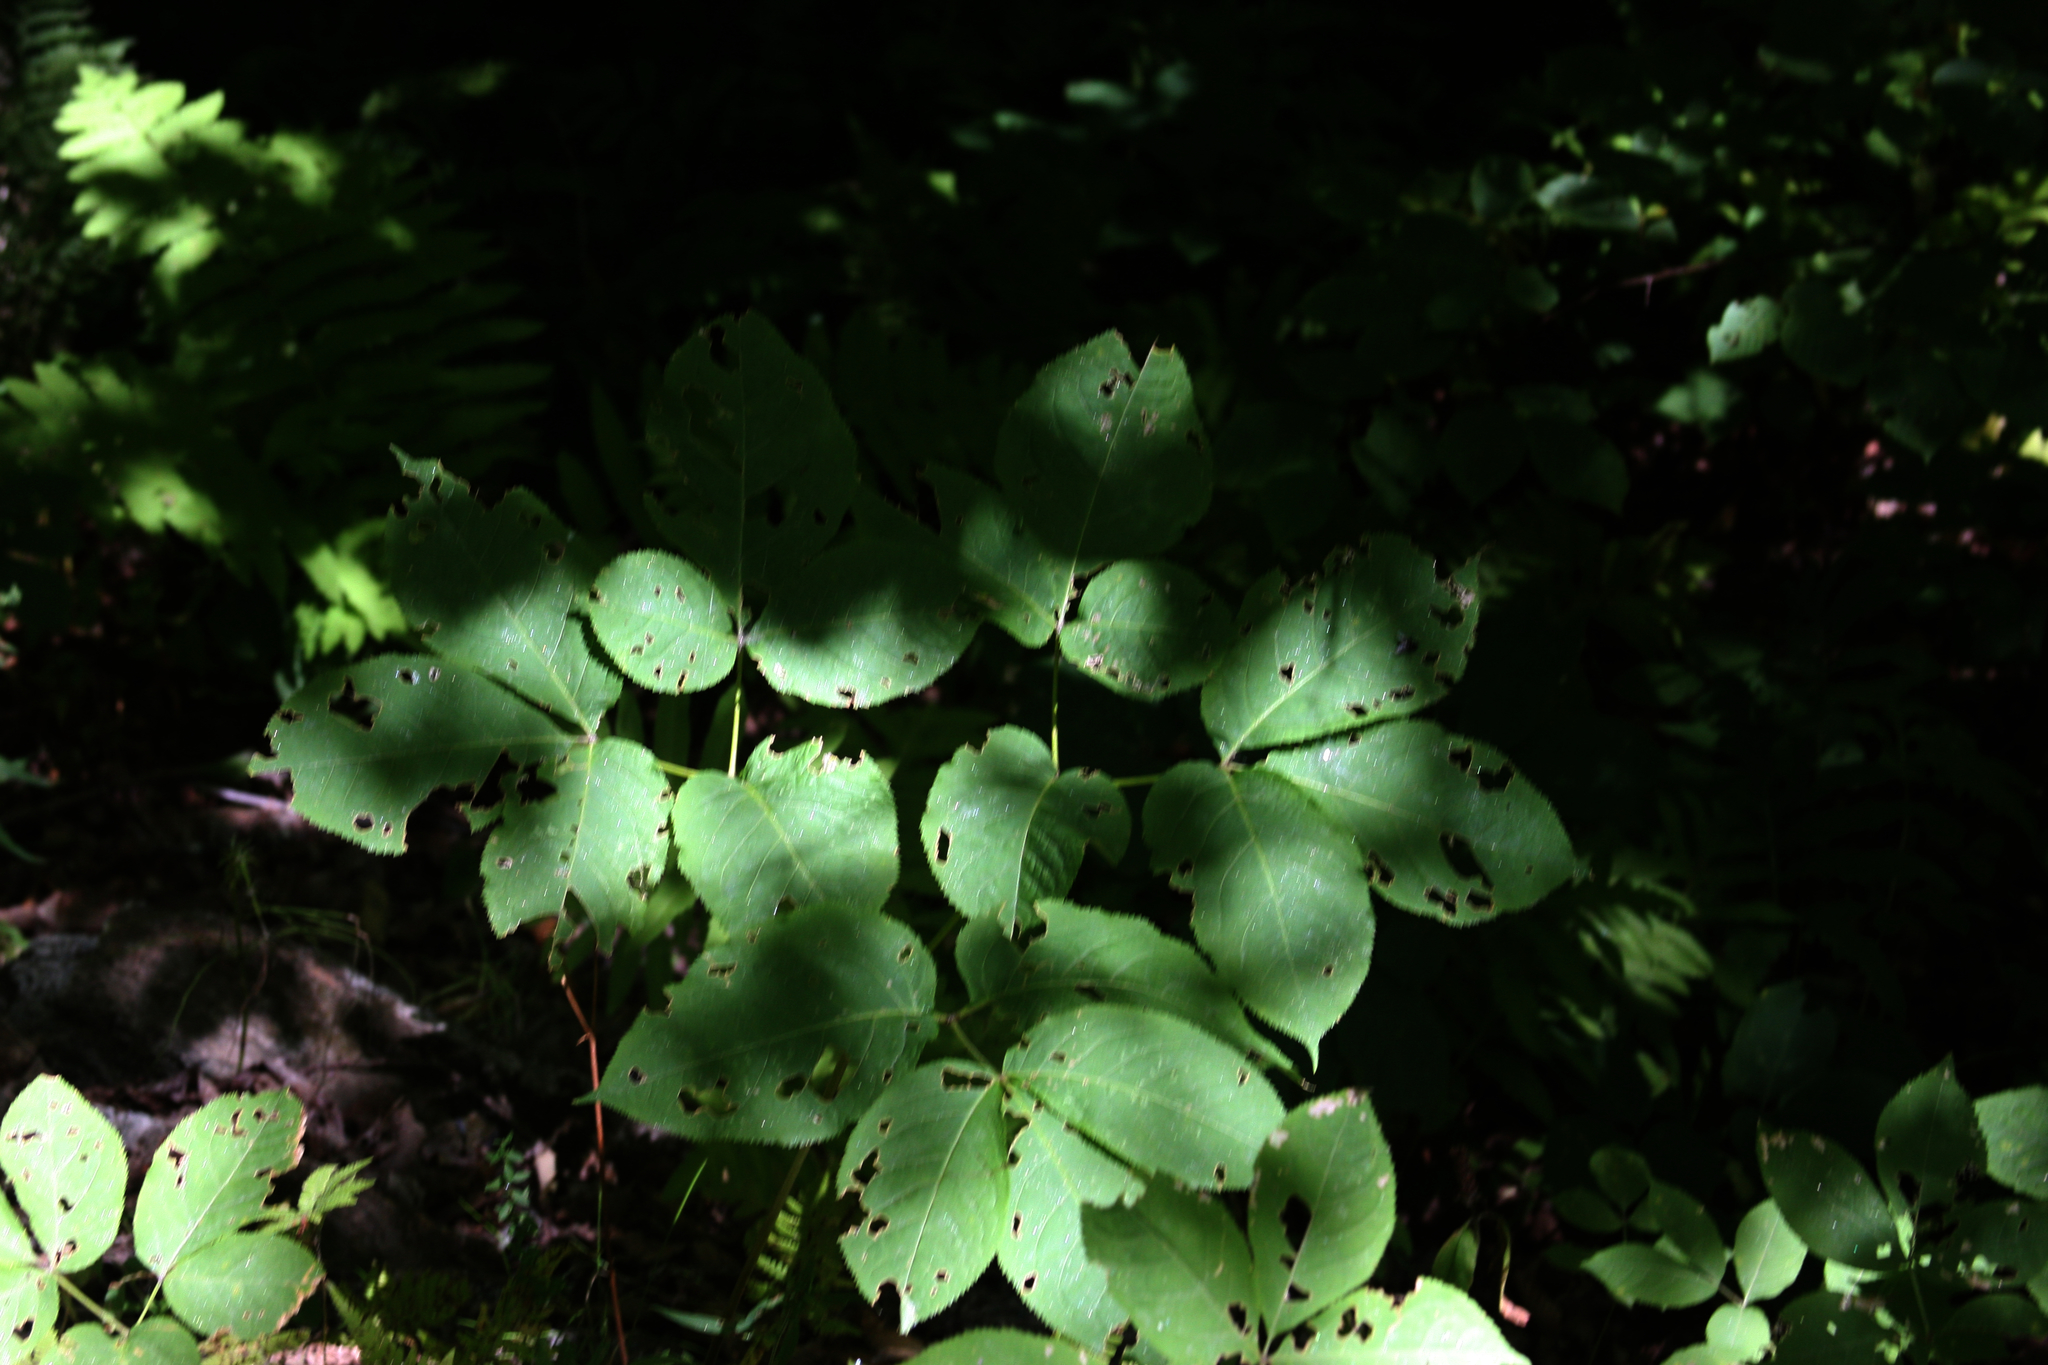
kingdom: Plantae
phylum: Tracheophyta
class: Magnoliopsida
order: Apiales
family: Araliaceae
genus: Aralia
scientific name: Aralia nudicaulis
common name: Wild sarsaparilla
